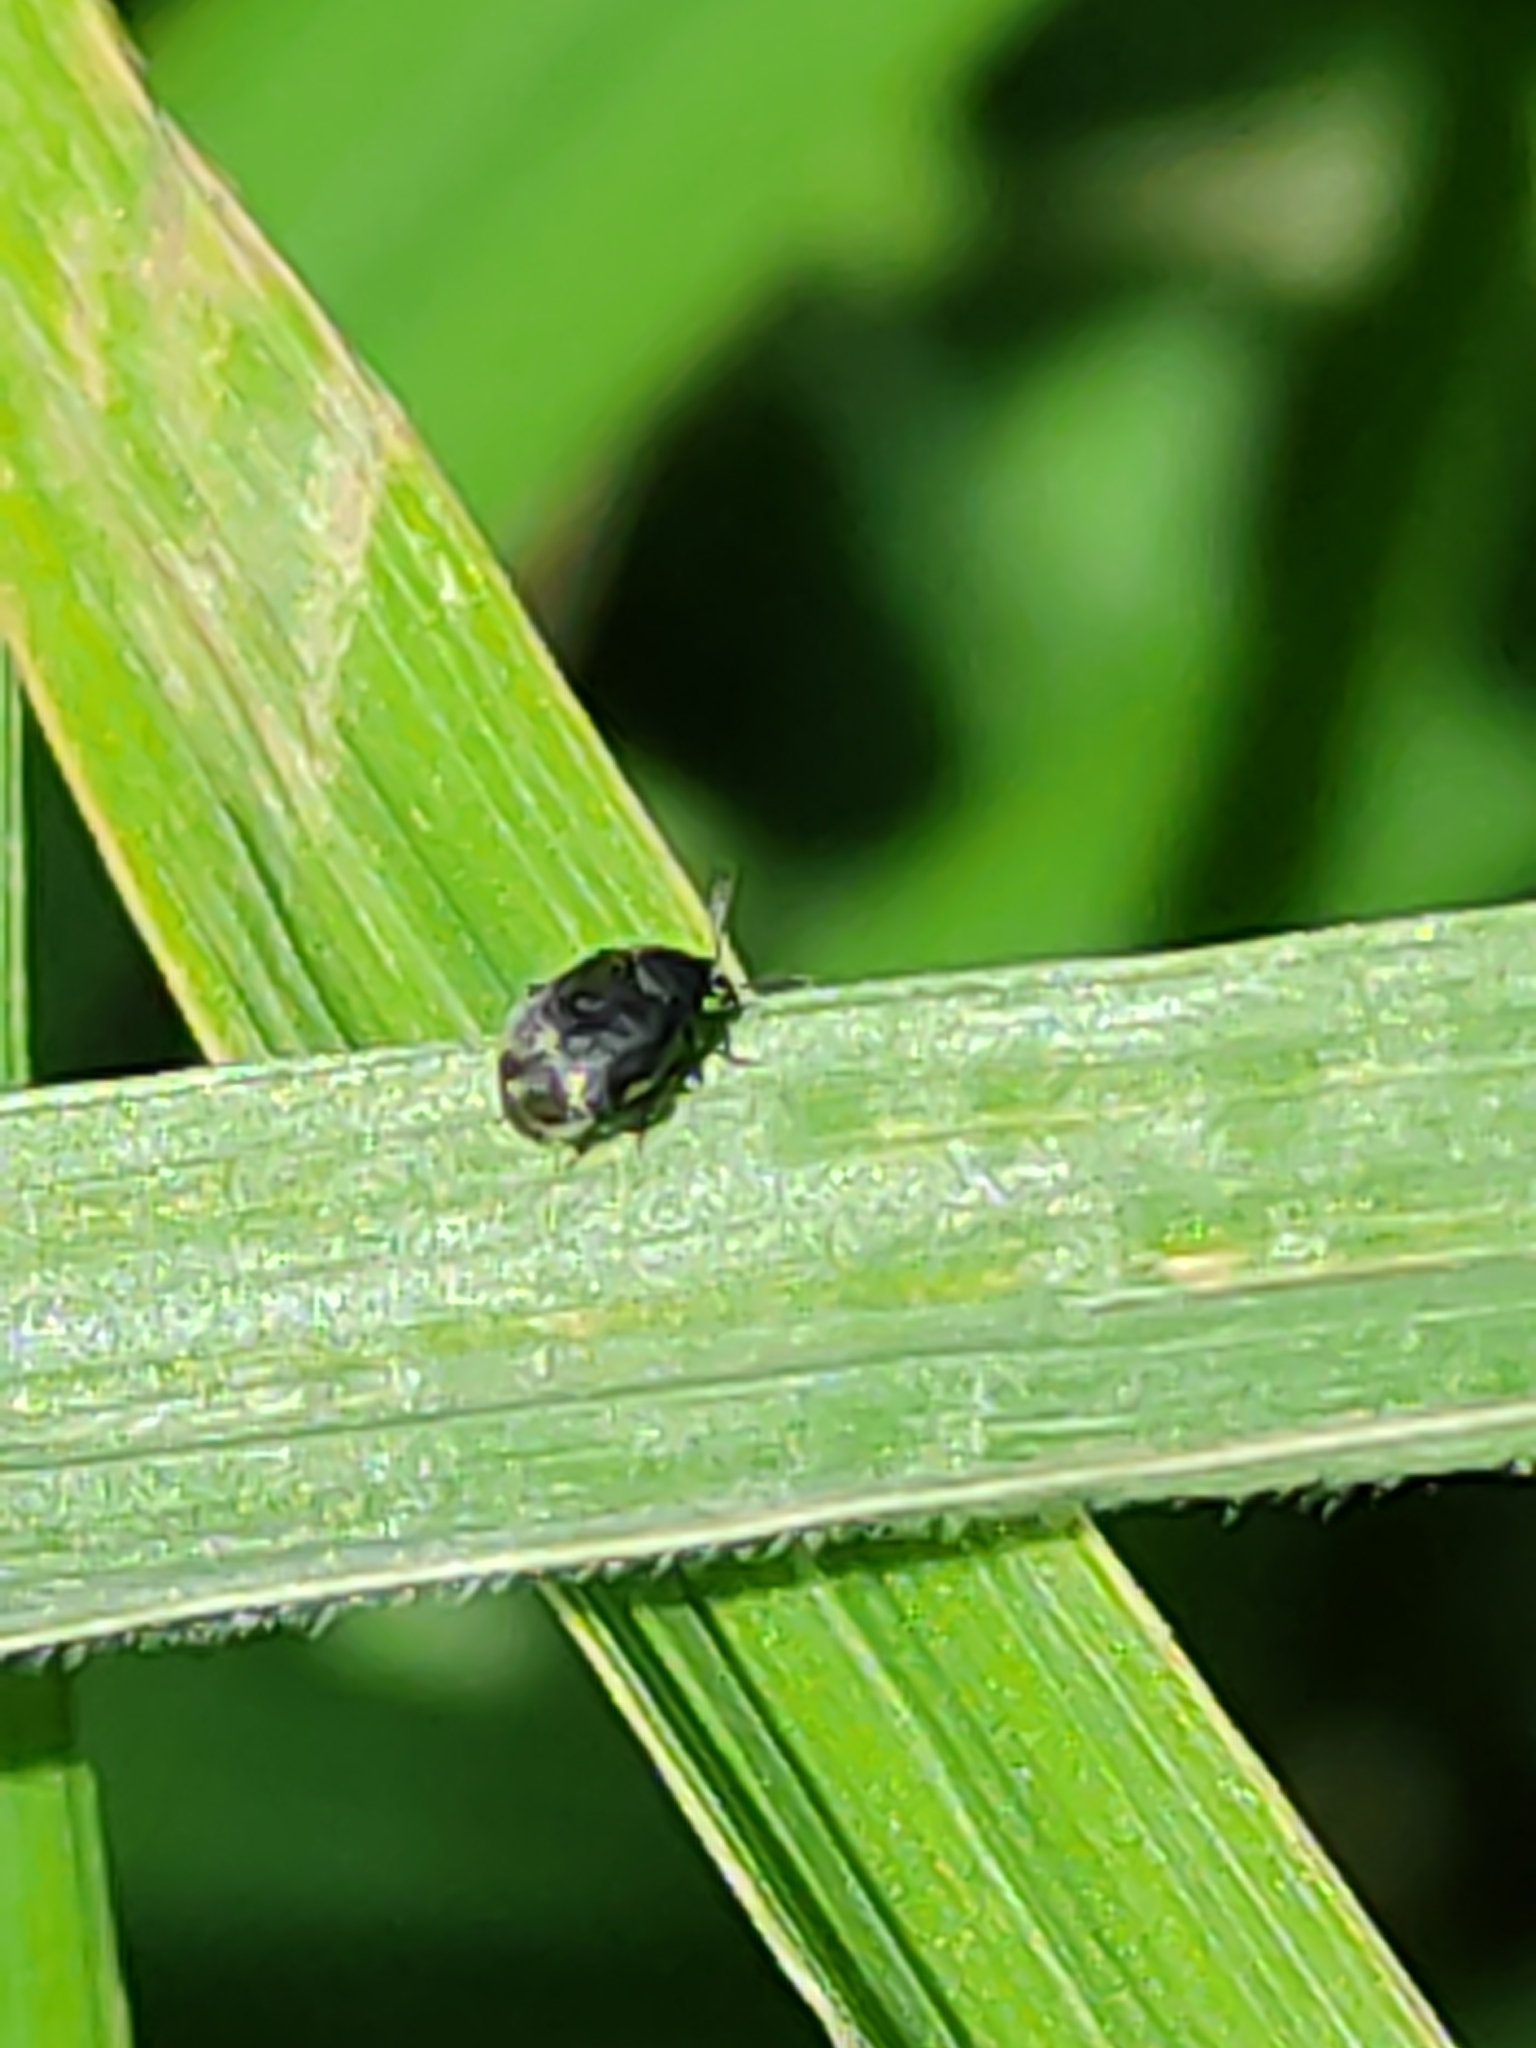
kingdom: Animalia
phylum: Arthropoda
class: Insecta
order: Coleoptera
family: Chrysomelidae
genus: Bruchidius
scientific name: Bruchidius villosus
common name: Scotch broom bruchid
